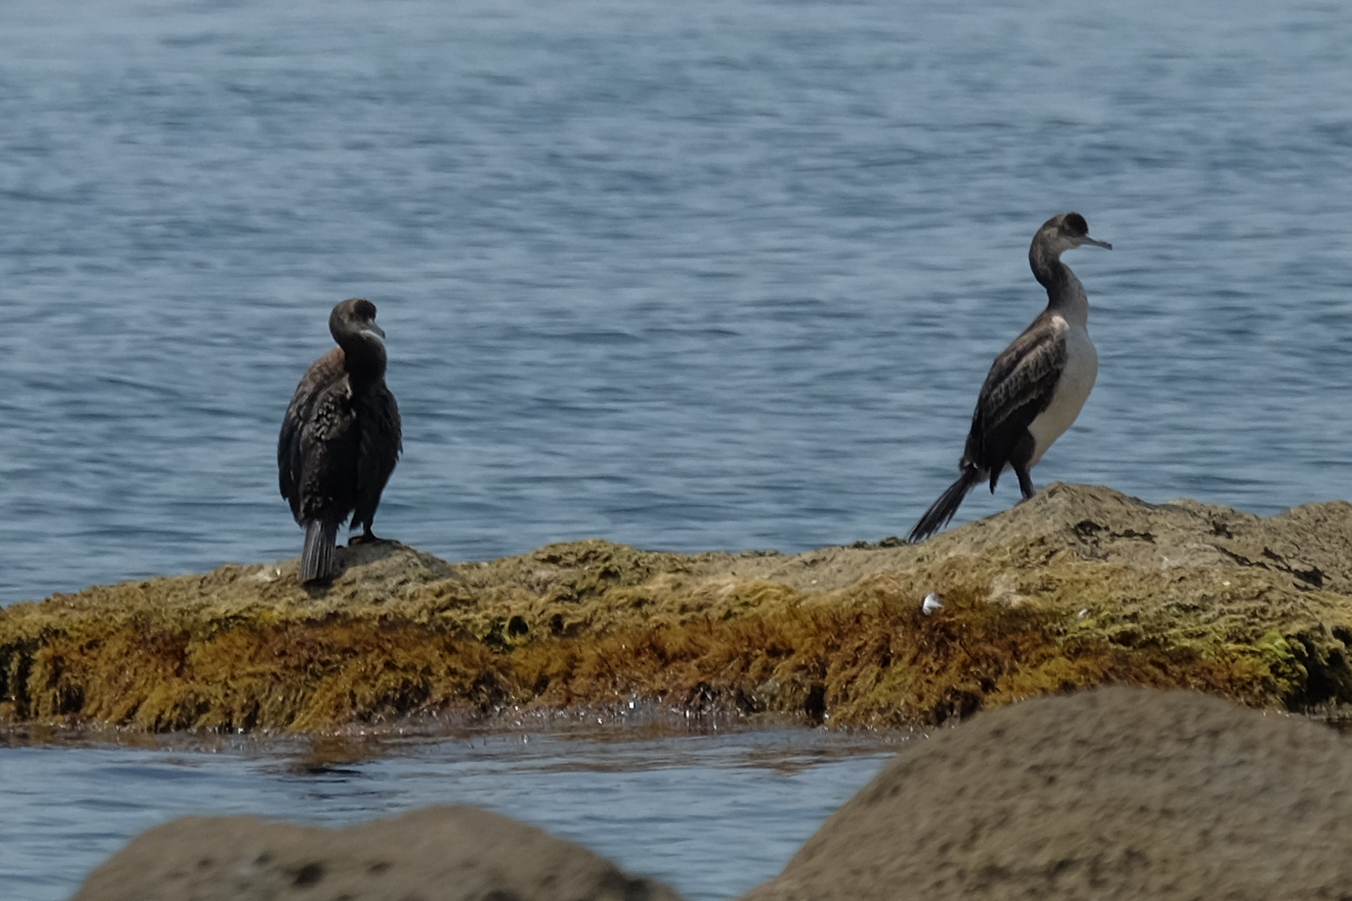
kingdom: Animalia
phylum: Chordata
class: Aves
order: Suliformes
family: Phalacrocoracidae
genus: Phalacrocorax
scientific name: Phalacrocorax aristotelis
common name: European shag
